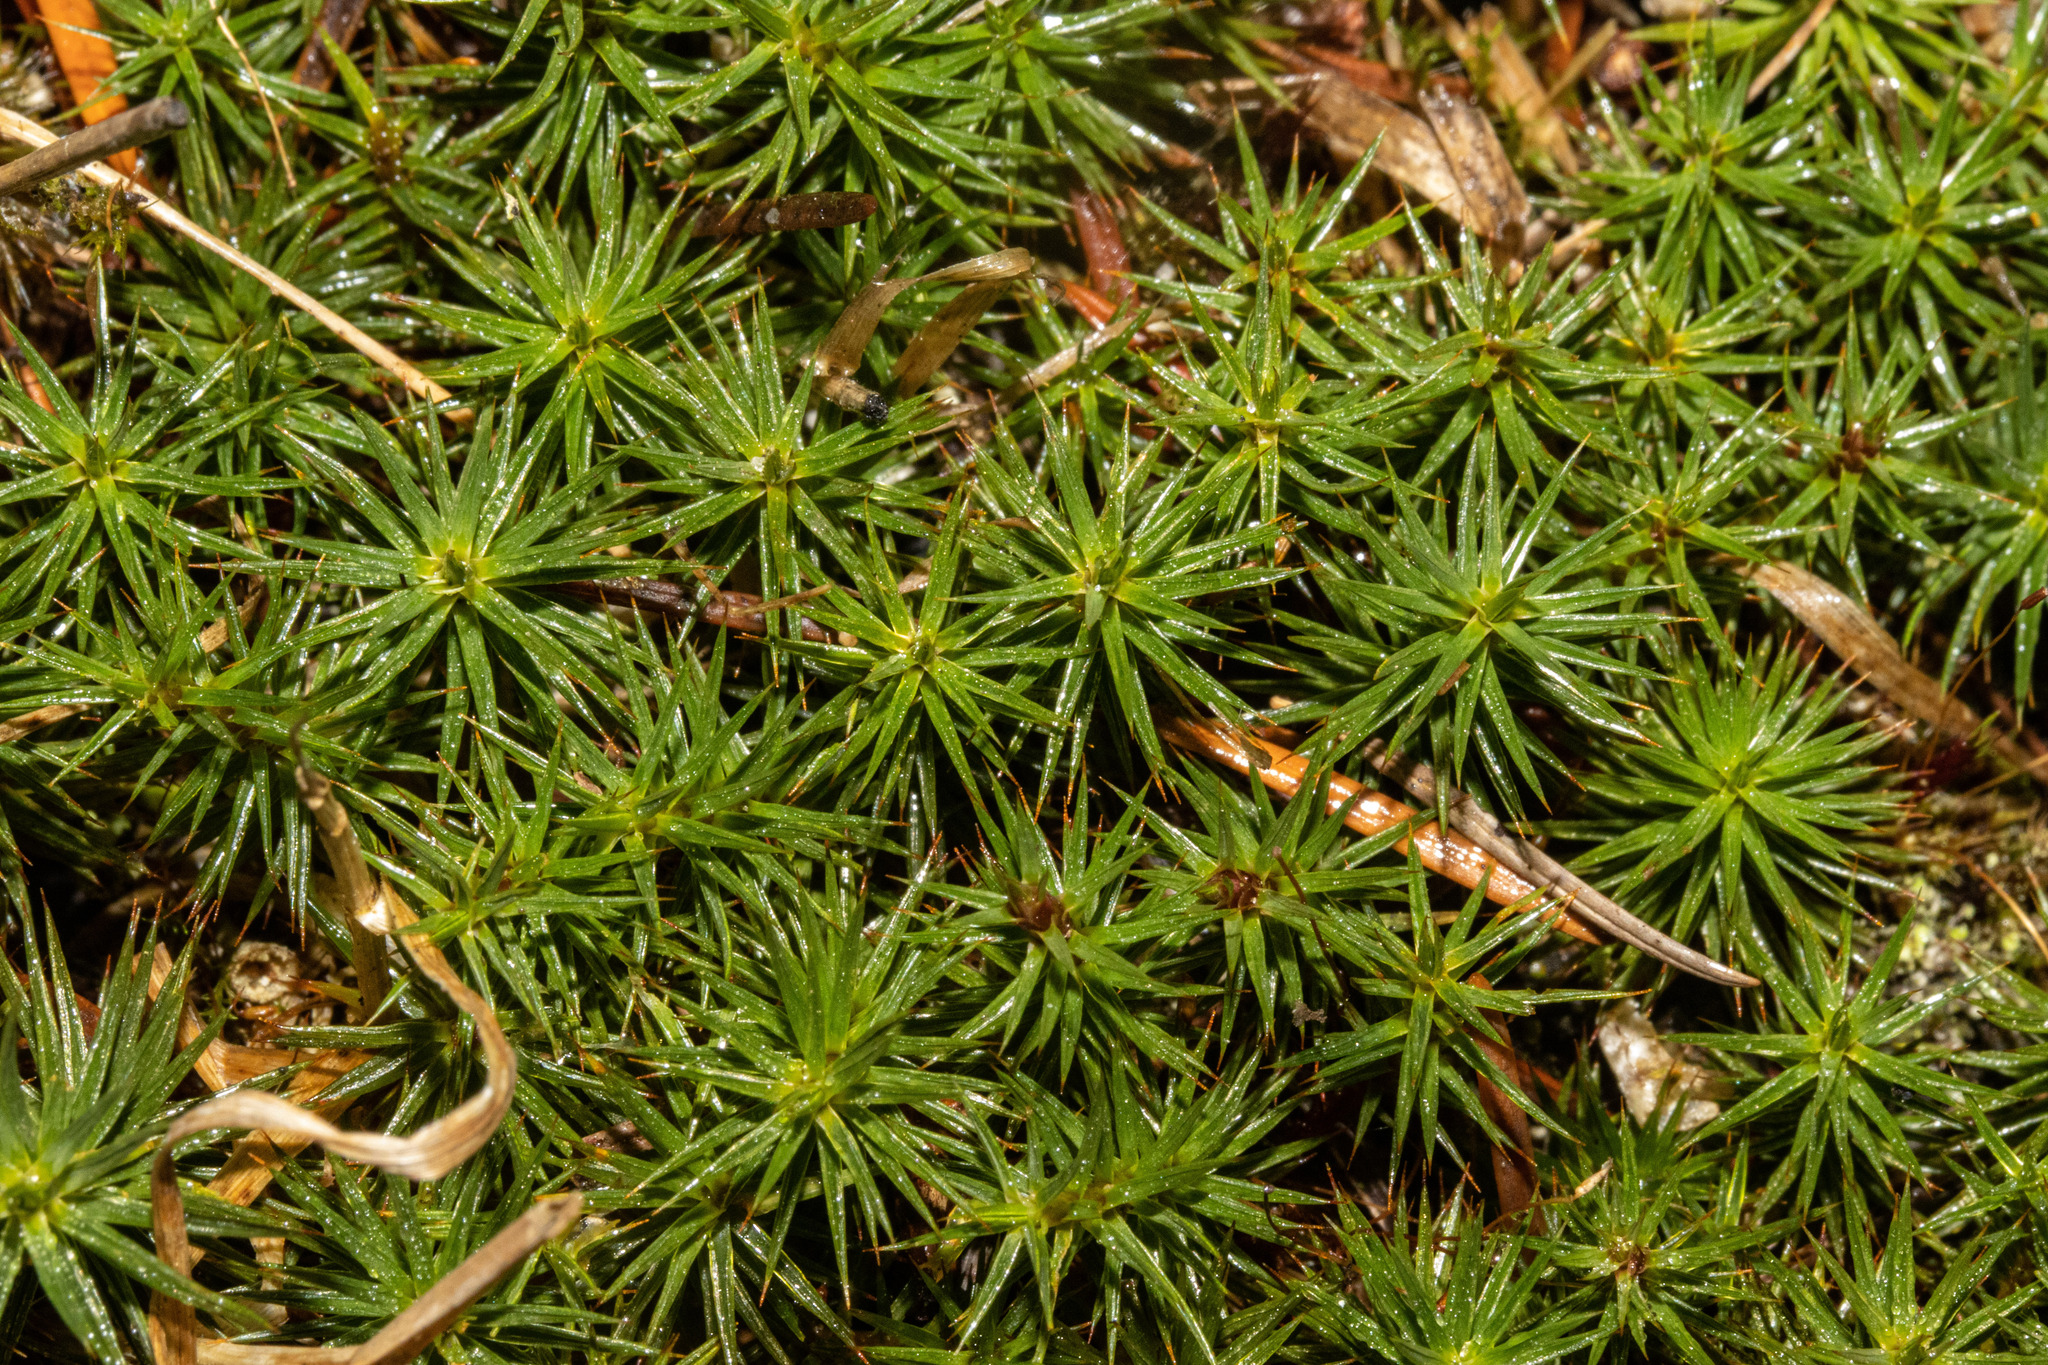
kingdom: Plantae
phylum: Bryophyta
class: Polytrichopsida
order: Polytrichales
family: Polytrichaceae
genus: Polytrichum
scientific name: Polytrichum juniperinum
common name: Juniper haircap moss
